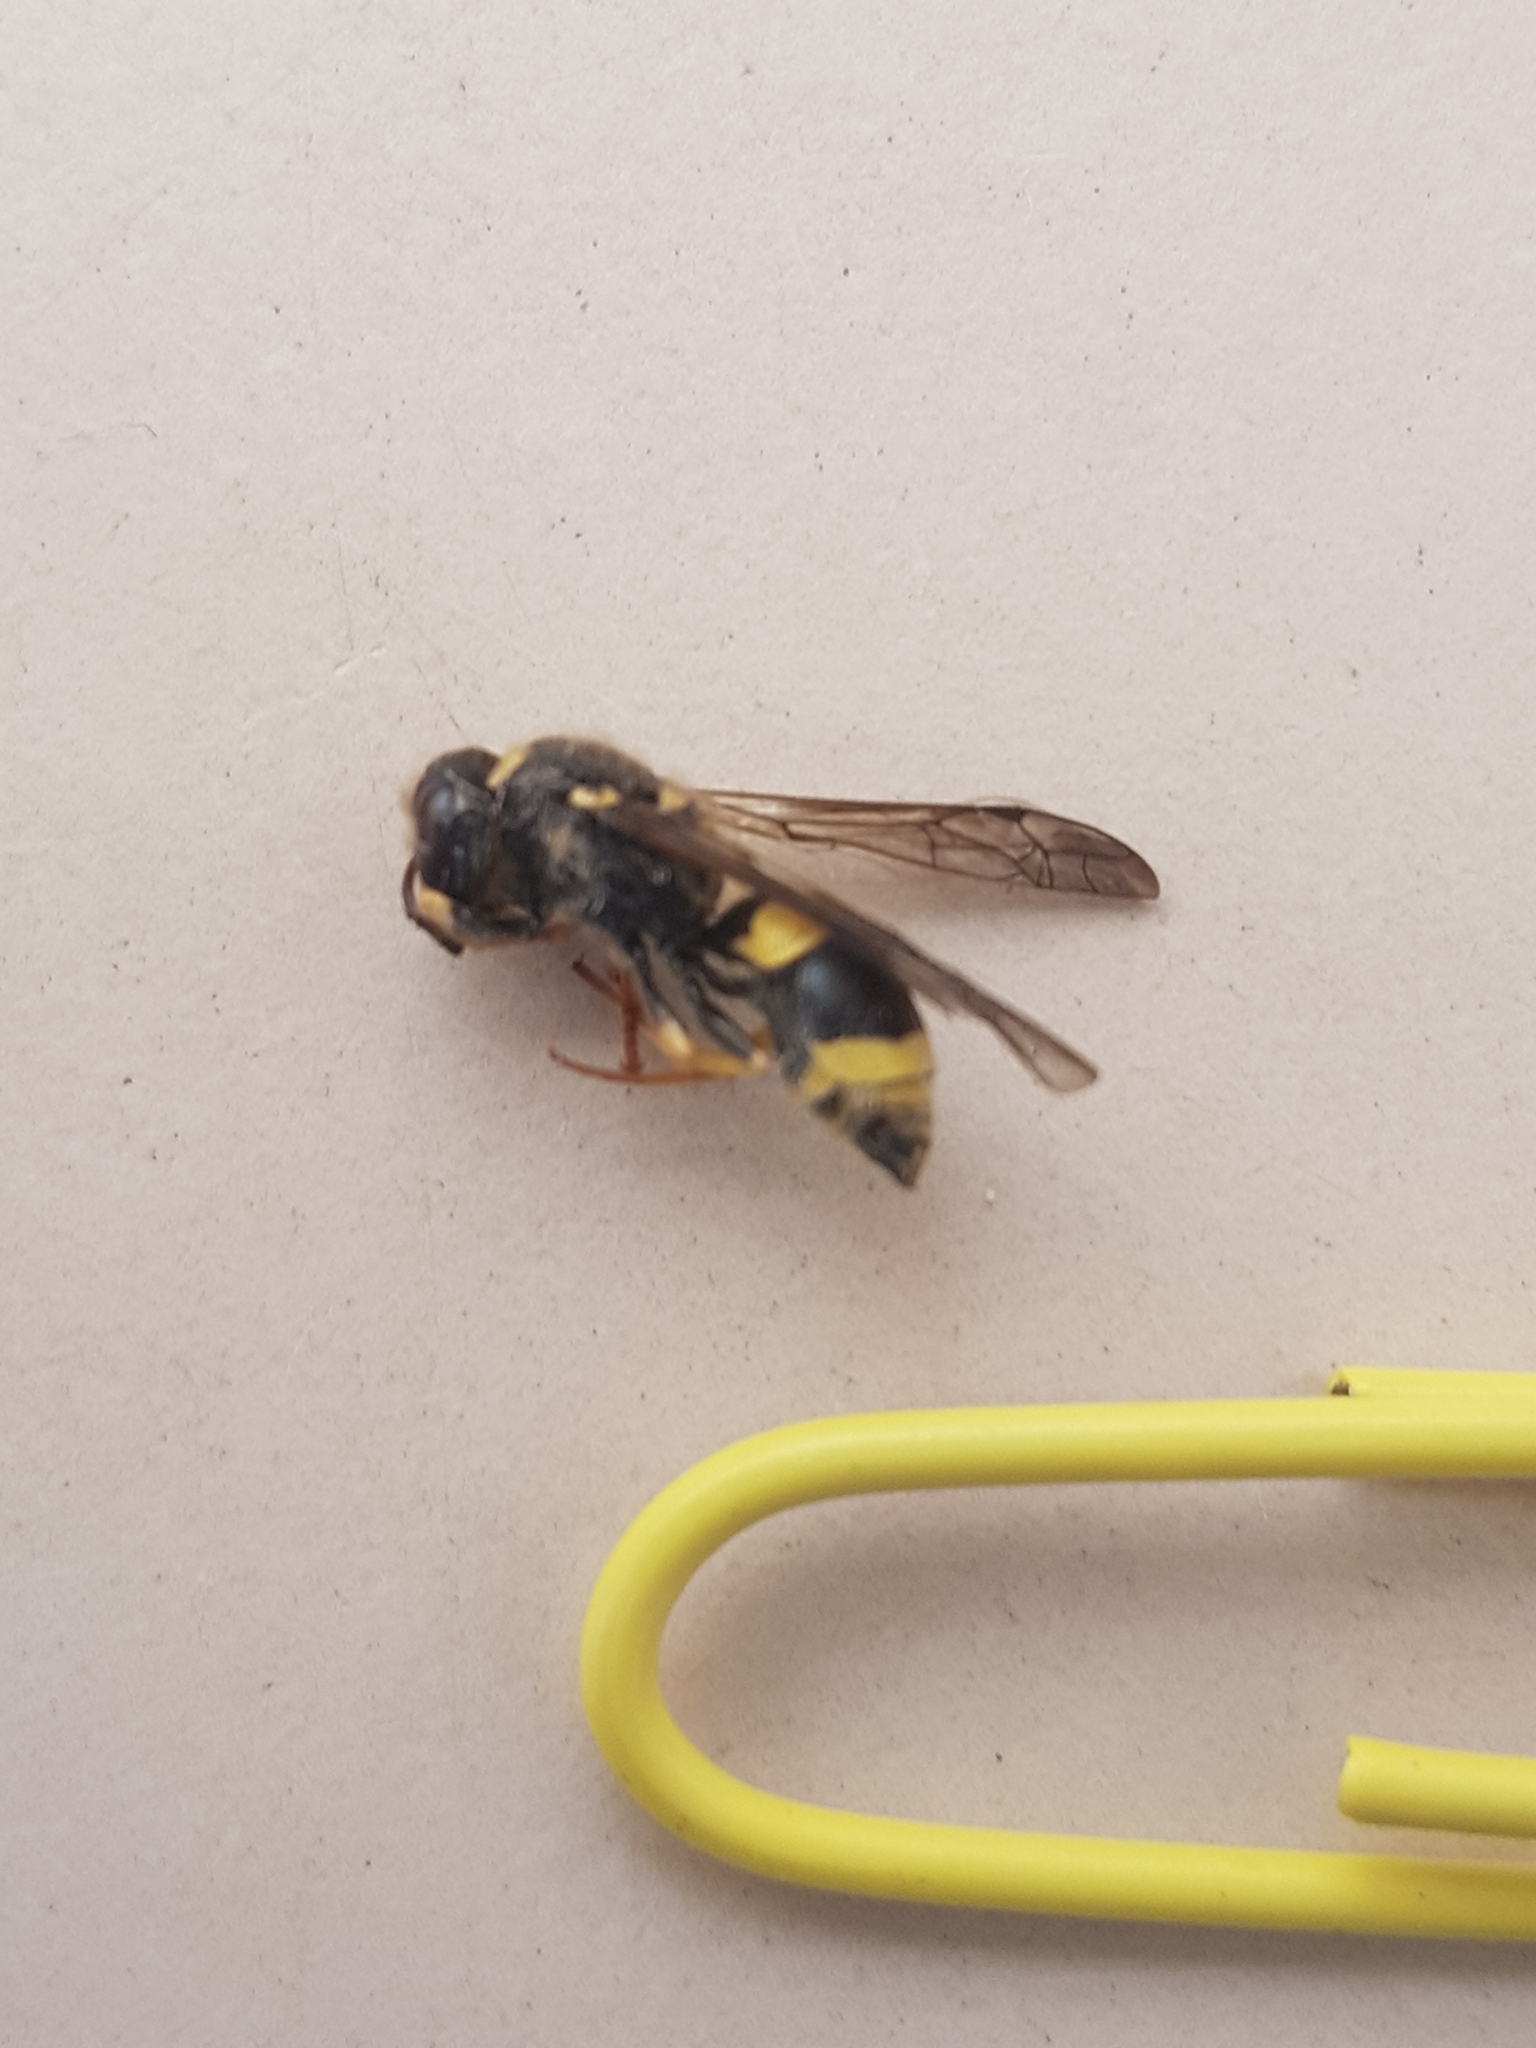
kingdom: Animalia
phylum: Arthropoda
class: Insecta
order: Hymenoptera
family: Vespidae
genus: Ancistrocerus
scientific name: Ancistrocerus gazella
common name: European tube wasp
